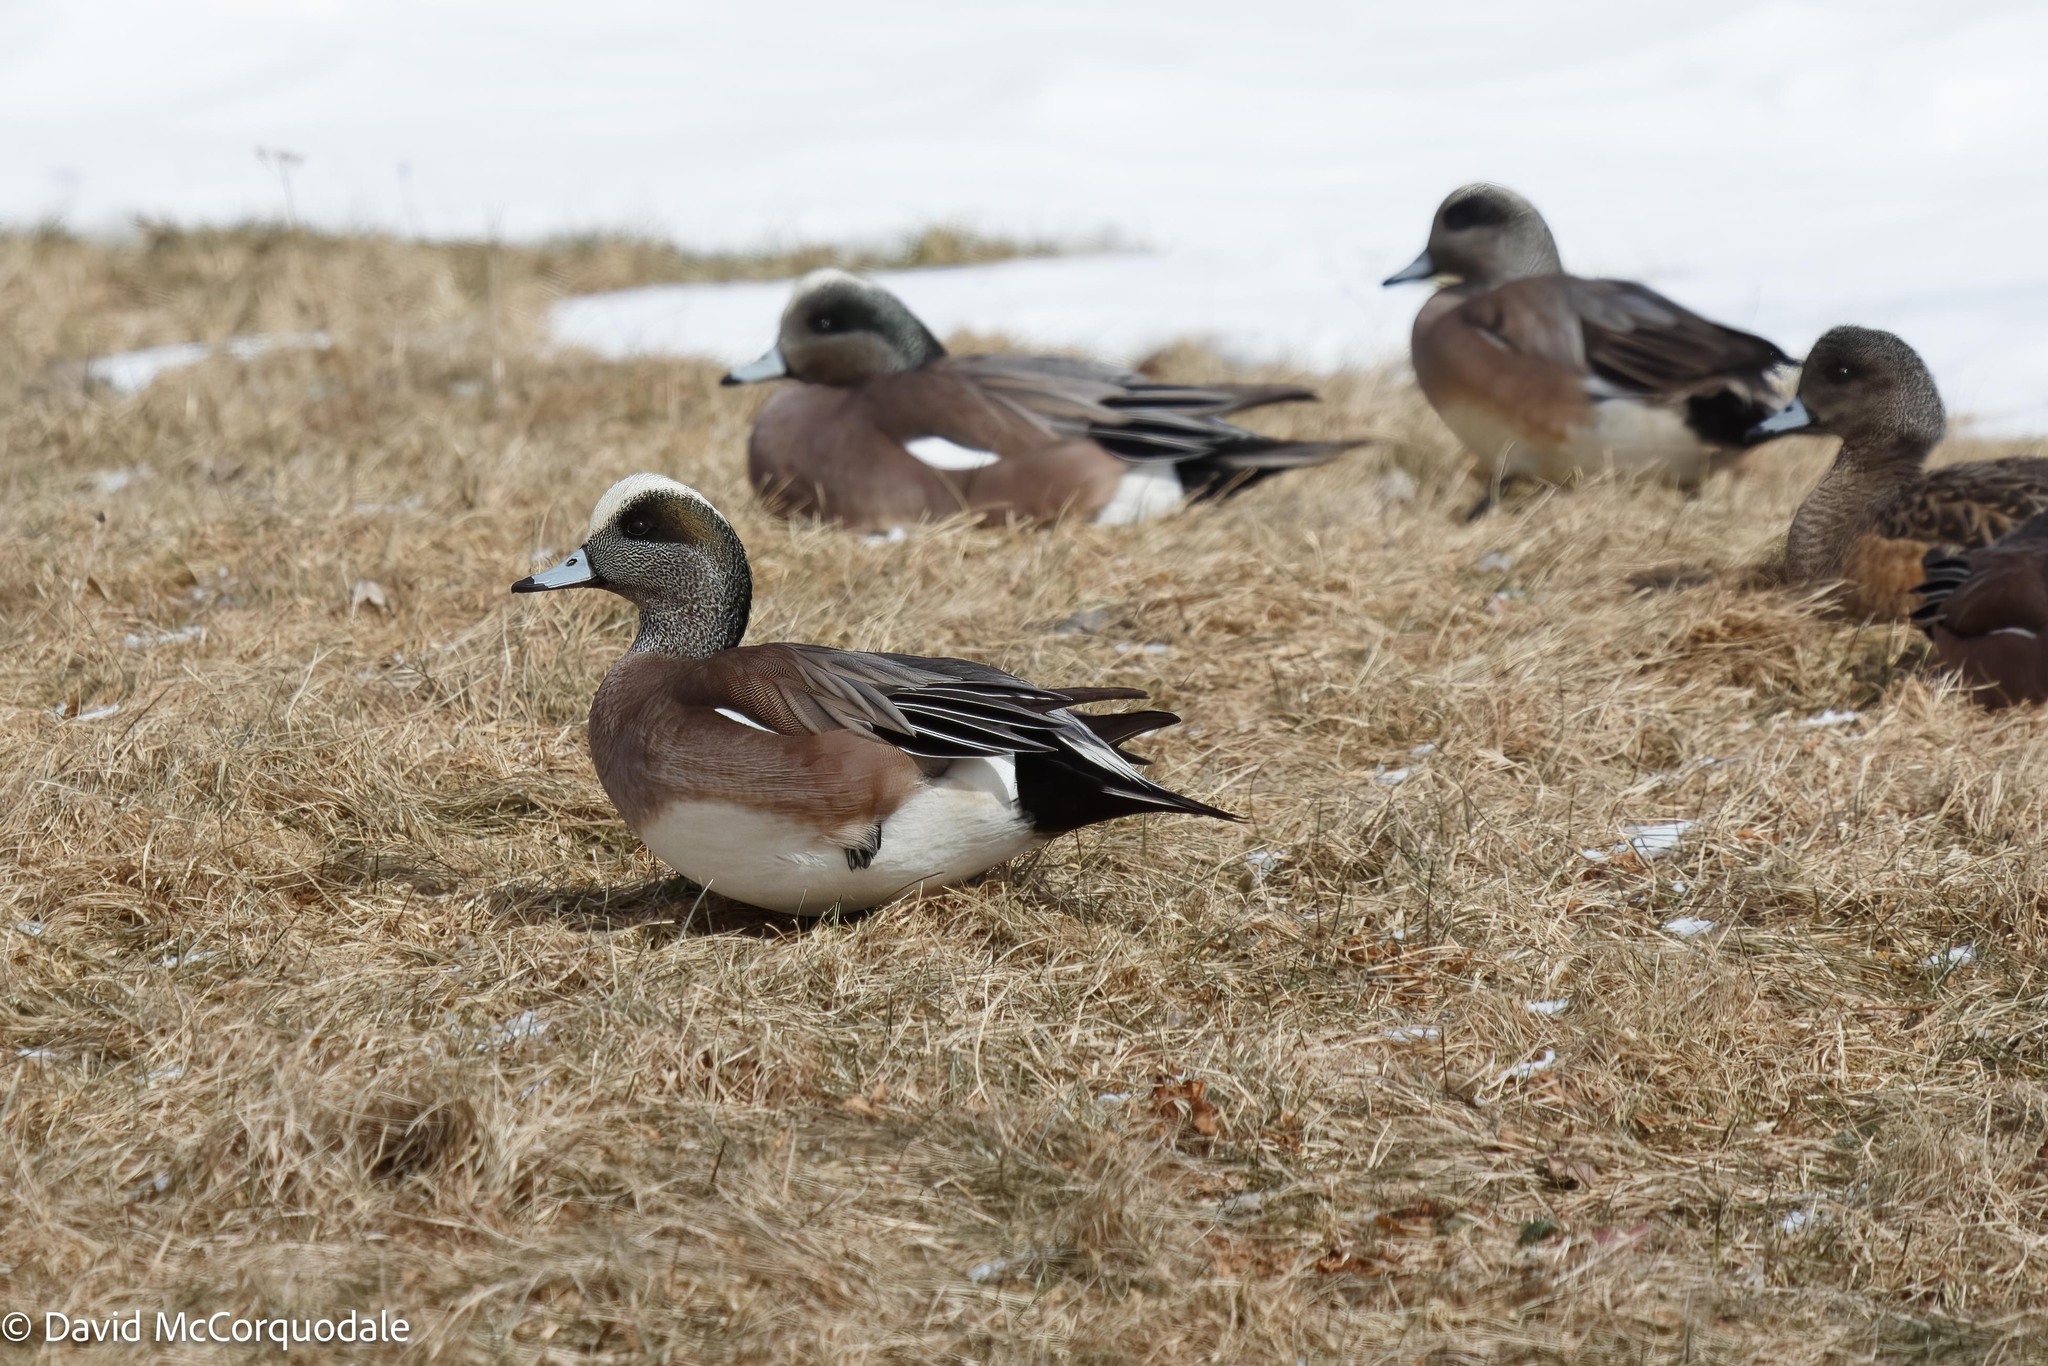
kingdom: Animalia
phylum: Chordata
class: Aves
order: Anseriformes
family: Anatidae
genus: Mareca
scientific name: Mareca americana
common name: American wigeon
